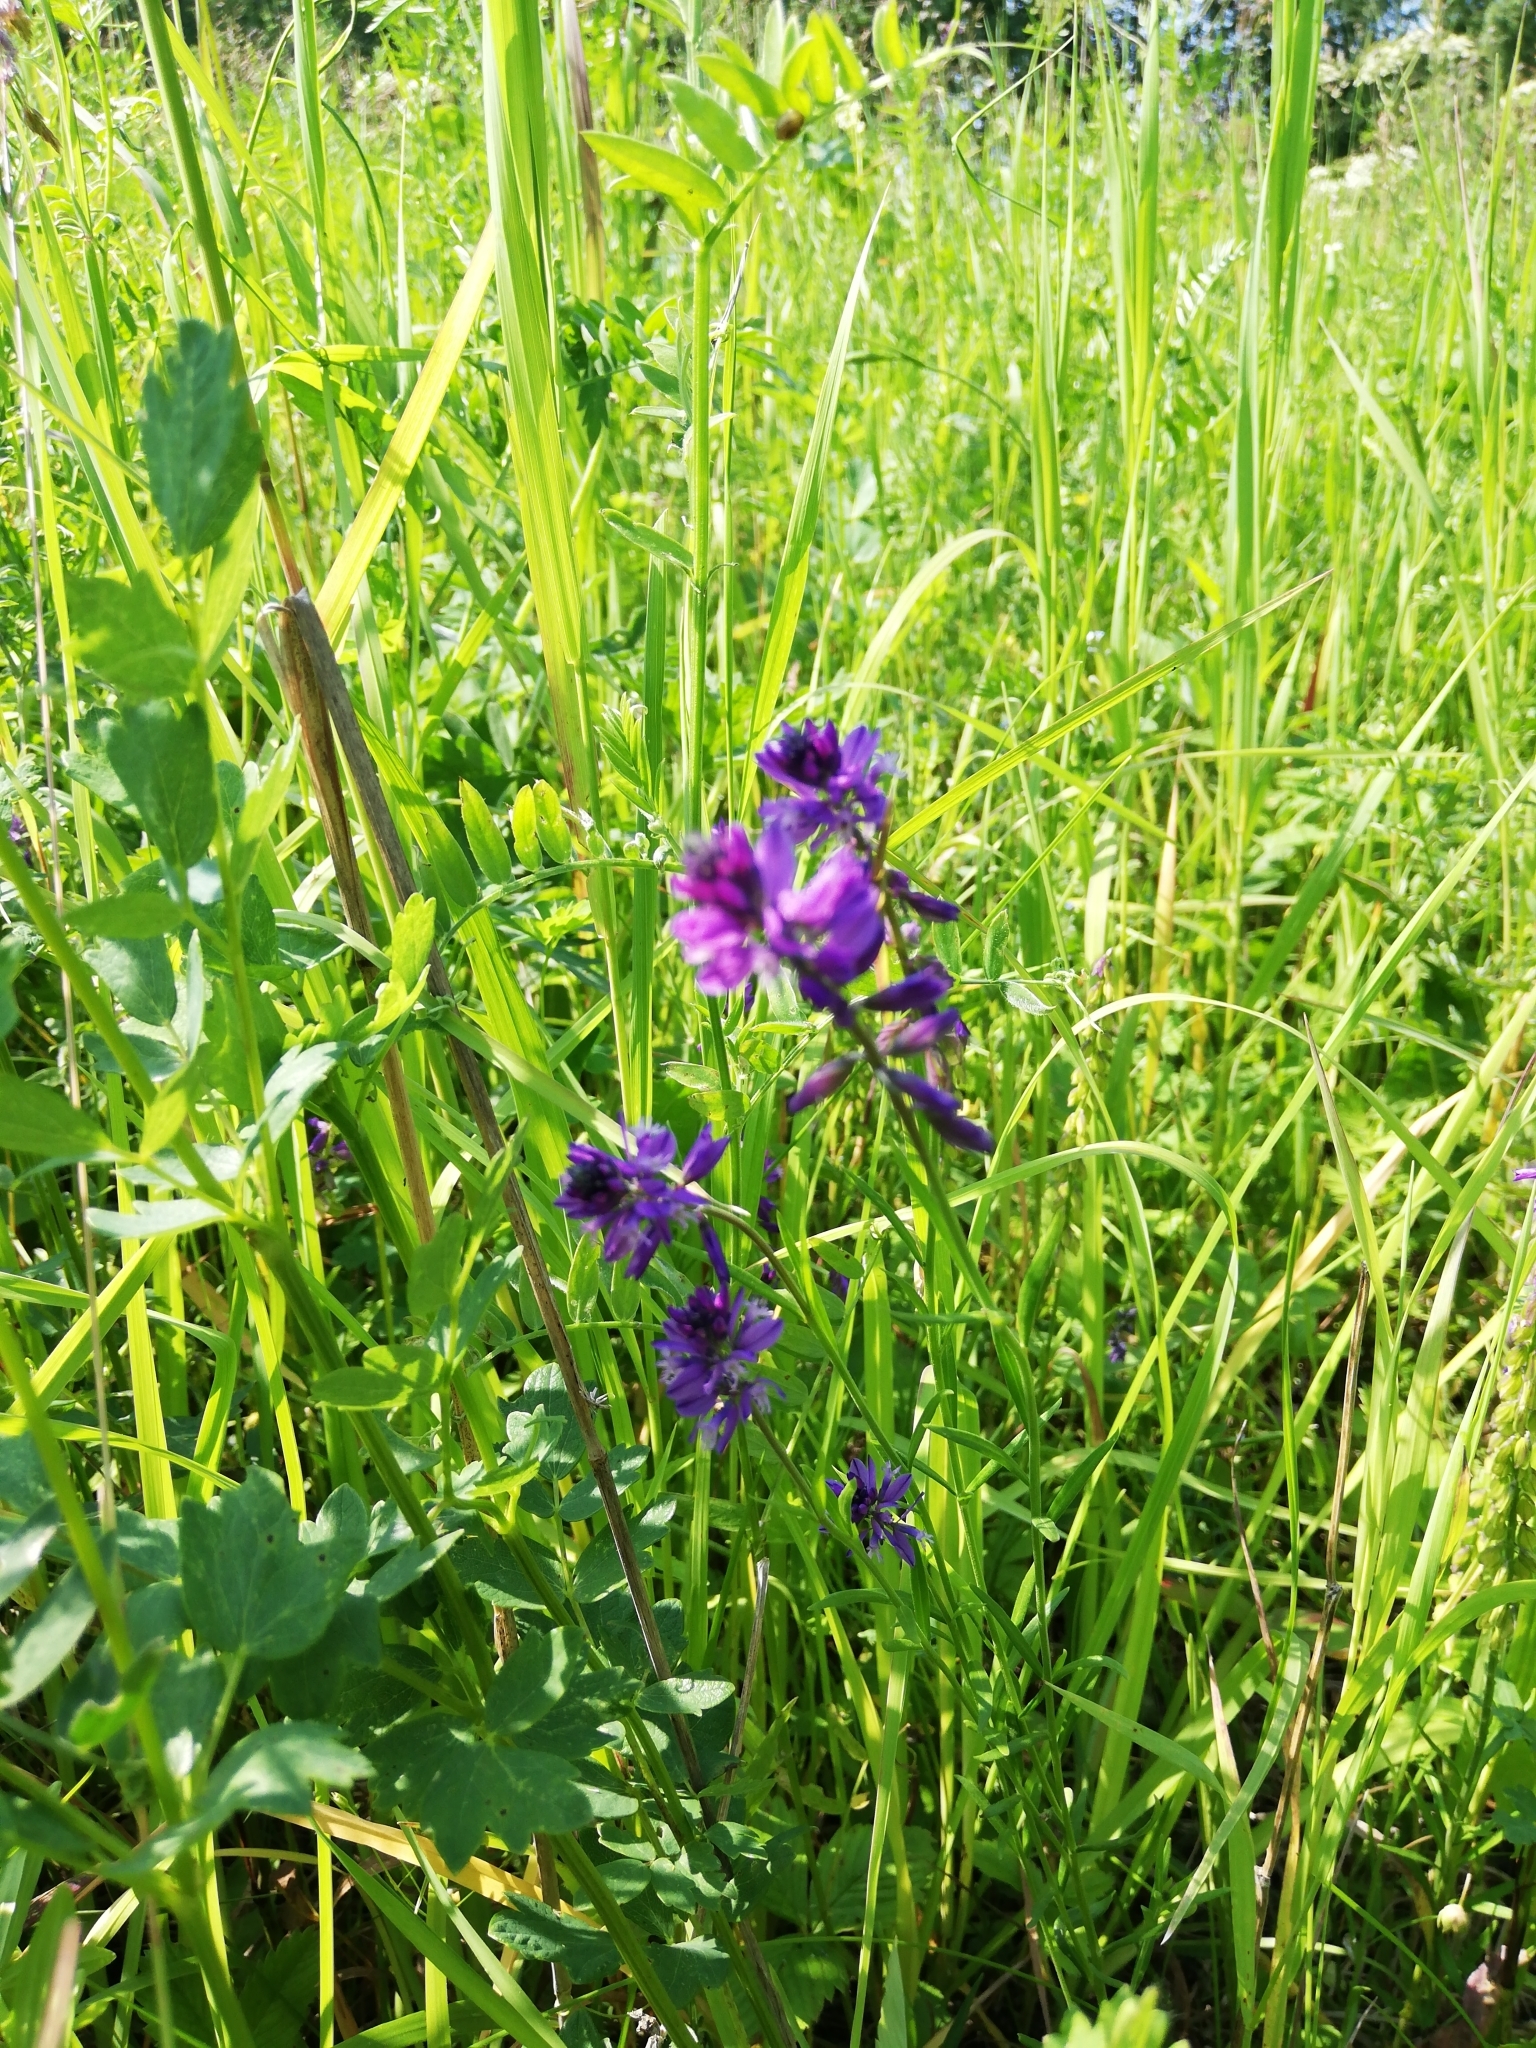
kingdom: Plantae
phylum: Tracheophyta
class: Magnoliopsida
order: Fabales
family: Polygalaceae
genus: Polygala
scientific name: Polygala comosa
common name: Tufted milkwort
